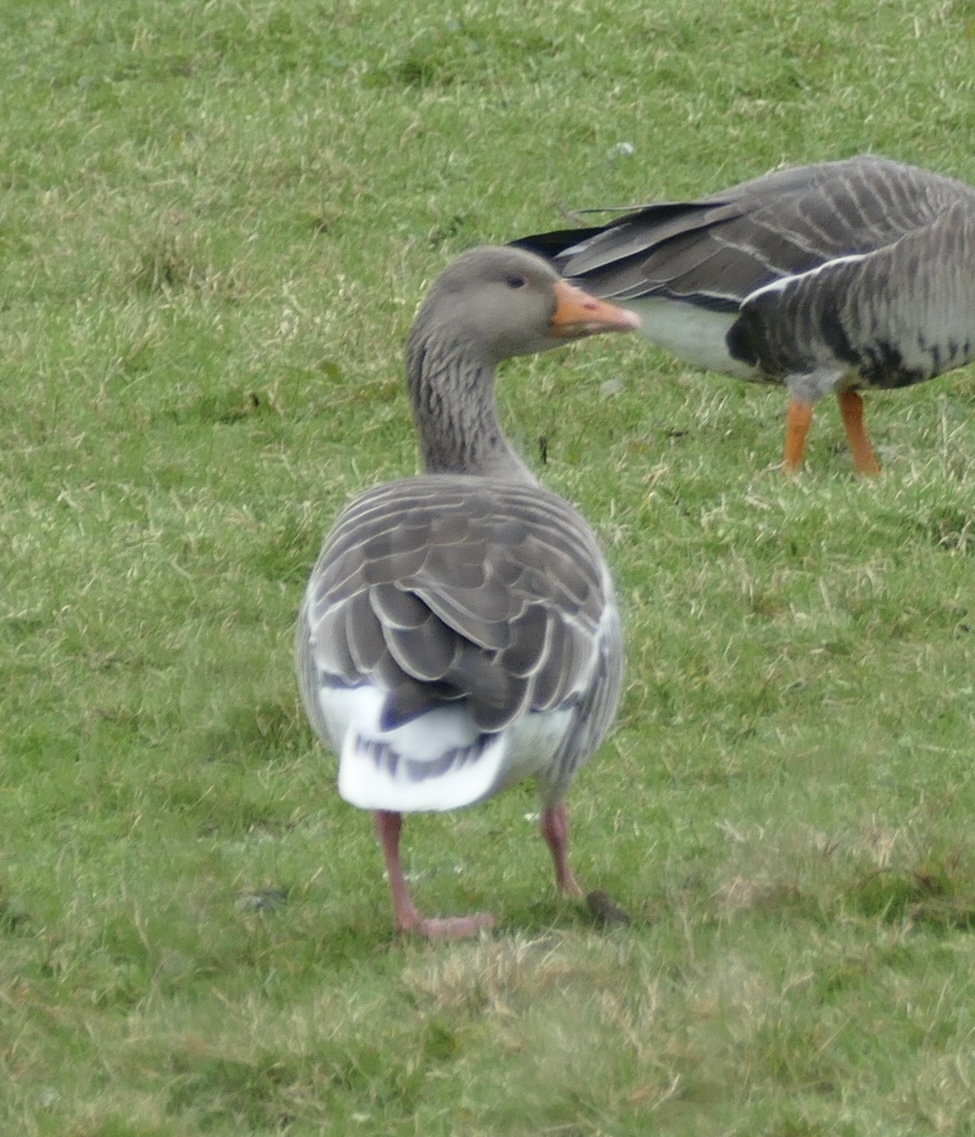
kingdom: Animalia
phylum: Chordata
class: Aves
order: Anseriformes
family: Anatidae
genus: Anser
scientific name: Anser anser
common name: Greylag goose
